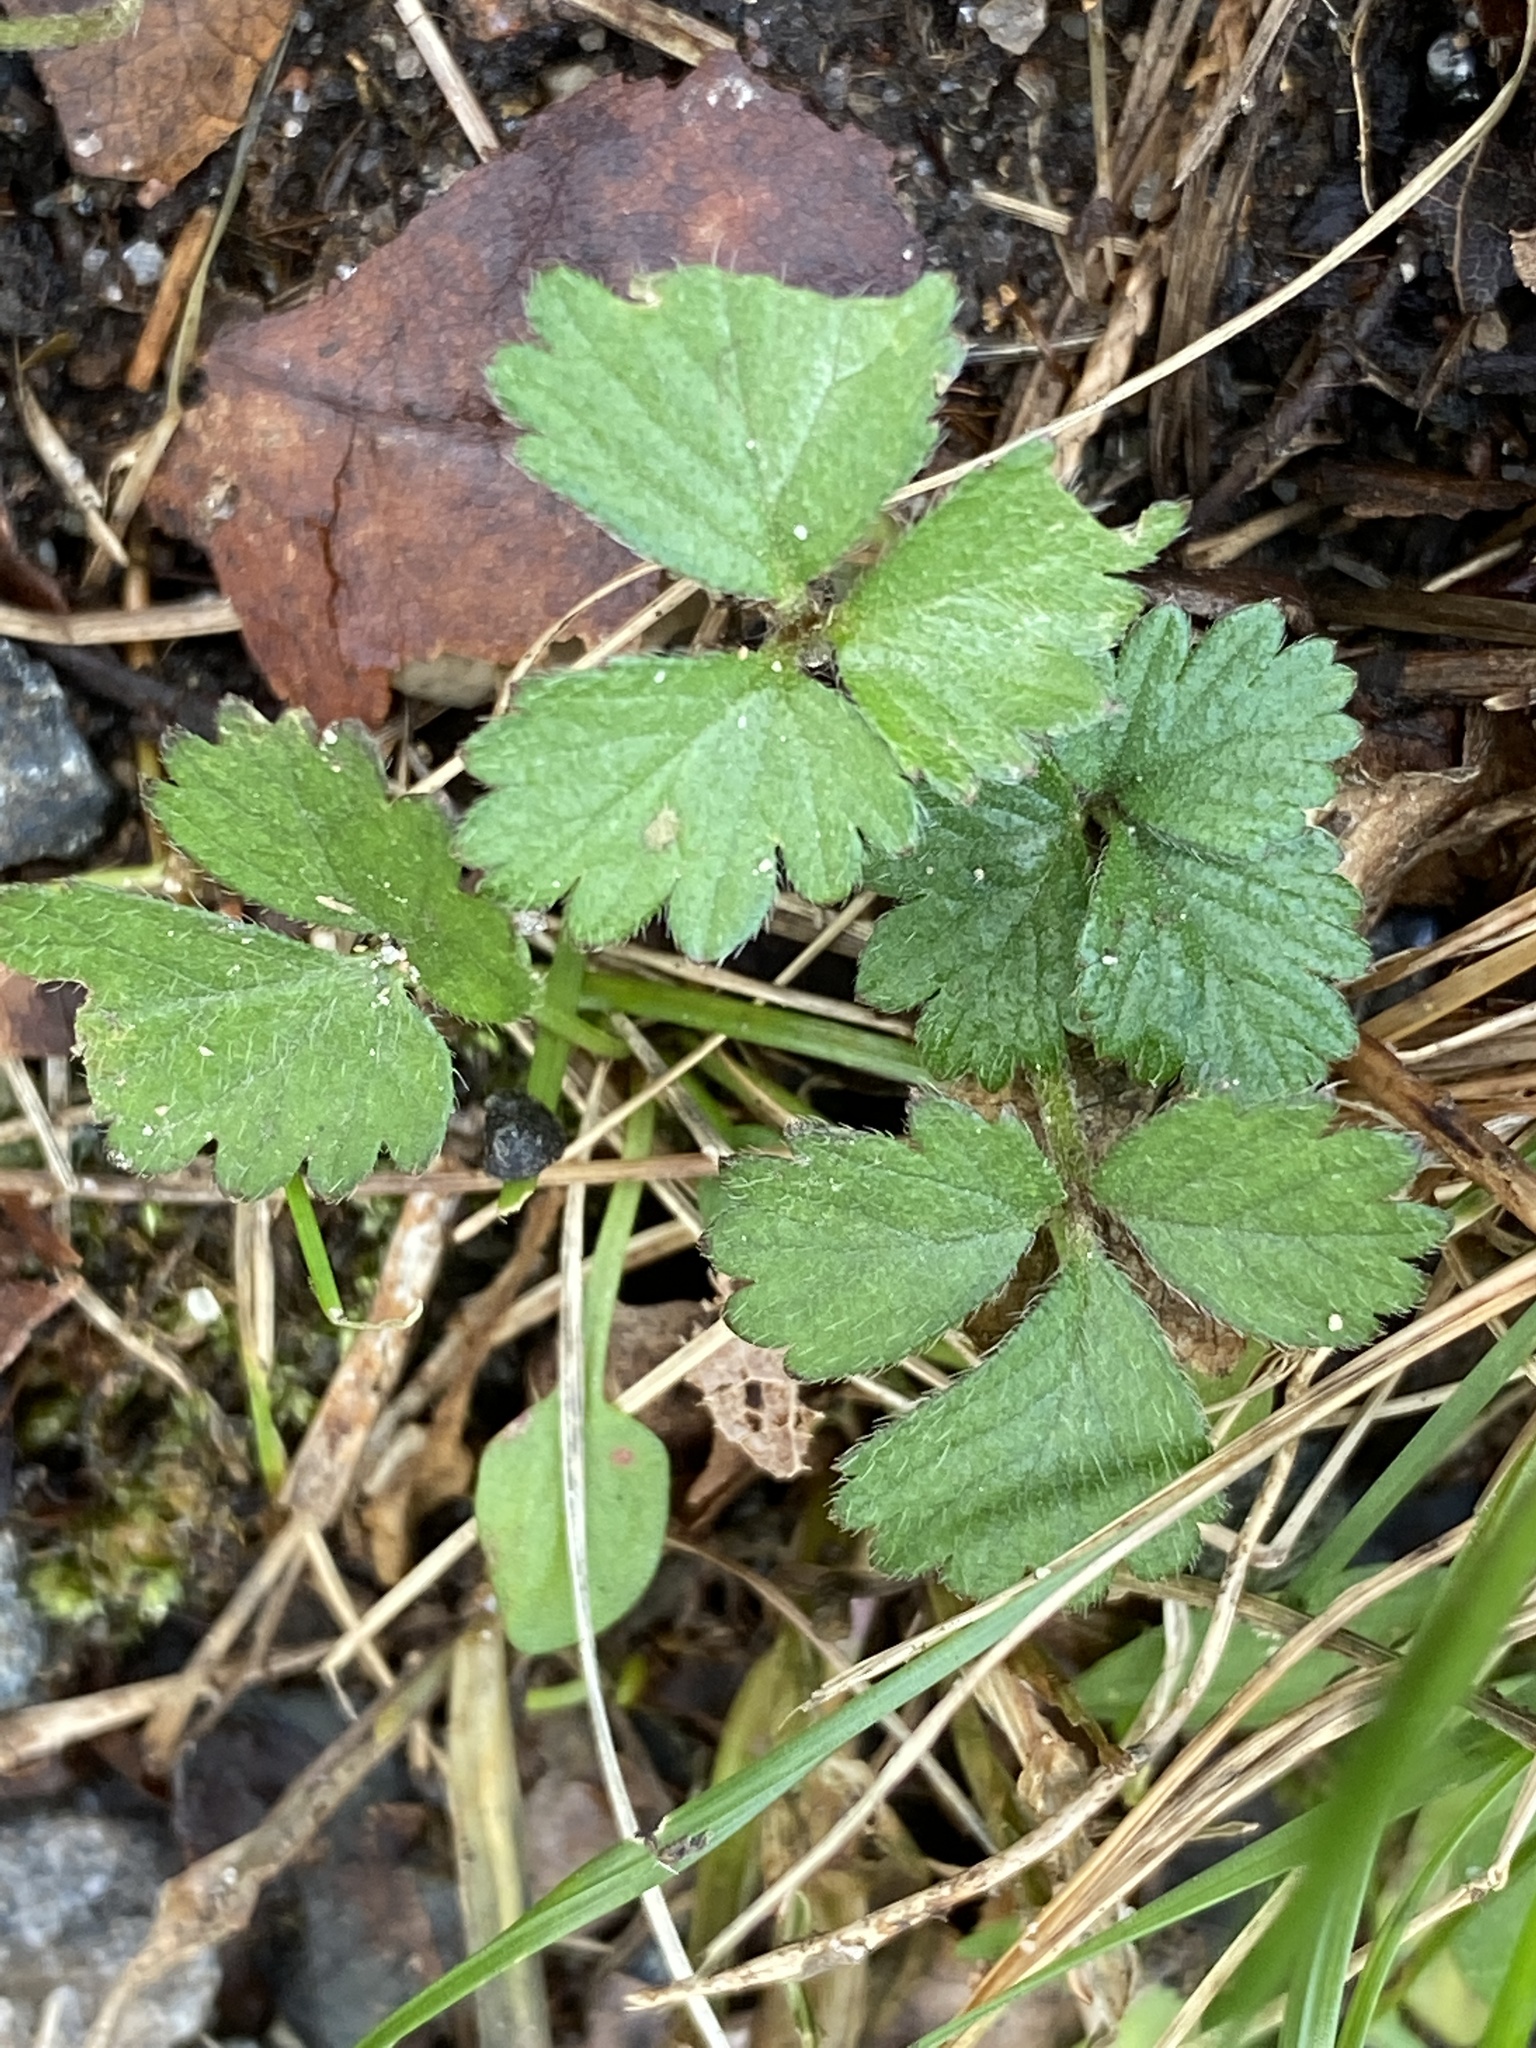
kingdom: Plantae
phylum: Tracheophyta
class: Magnoliopsida
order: Rosales
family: Rosaceae
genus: Potentilla
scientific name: Potentilla indica
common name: Yellow-flowered strawberry
